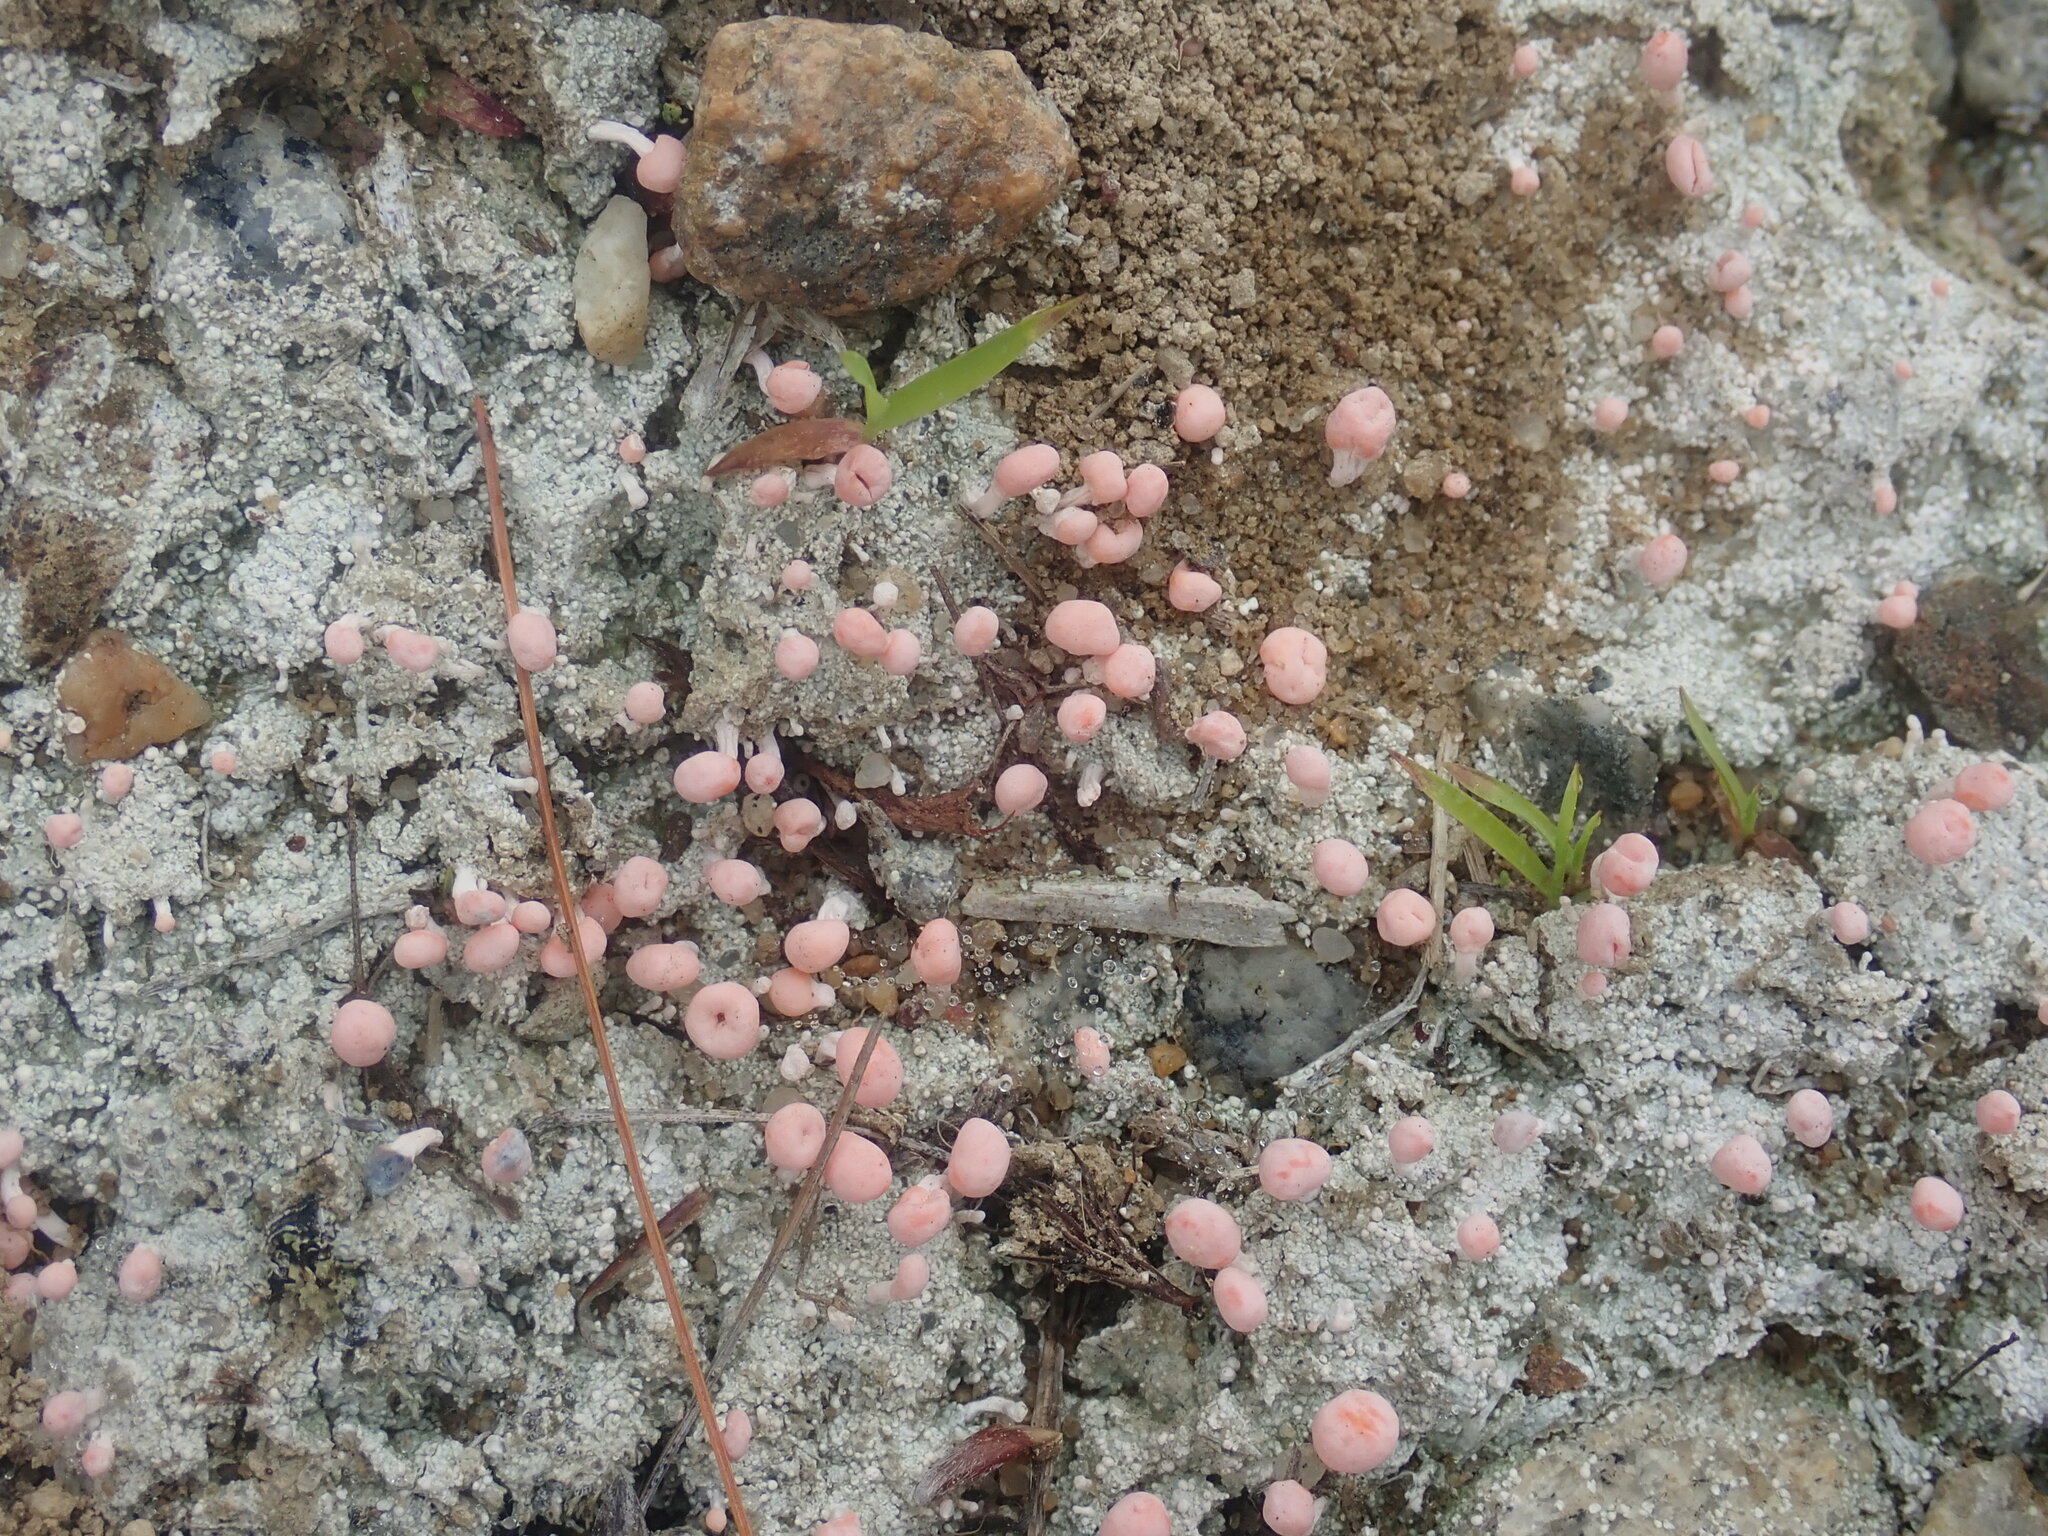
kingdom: Fungi
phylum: Ascomycota
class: Lecanoromycetes
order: Pertusariales
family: Icmadophilaceae
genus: Dibaeis
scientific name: Dibaeis baeomyces
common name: Pink earth lichen
